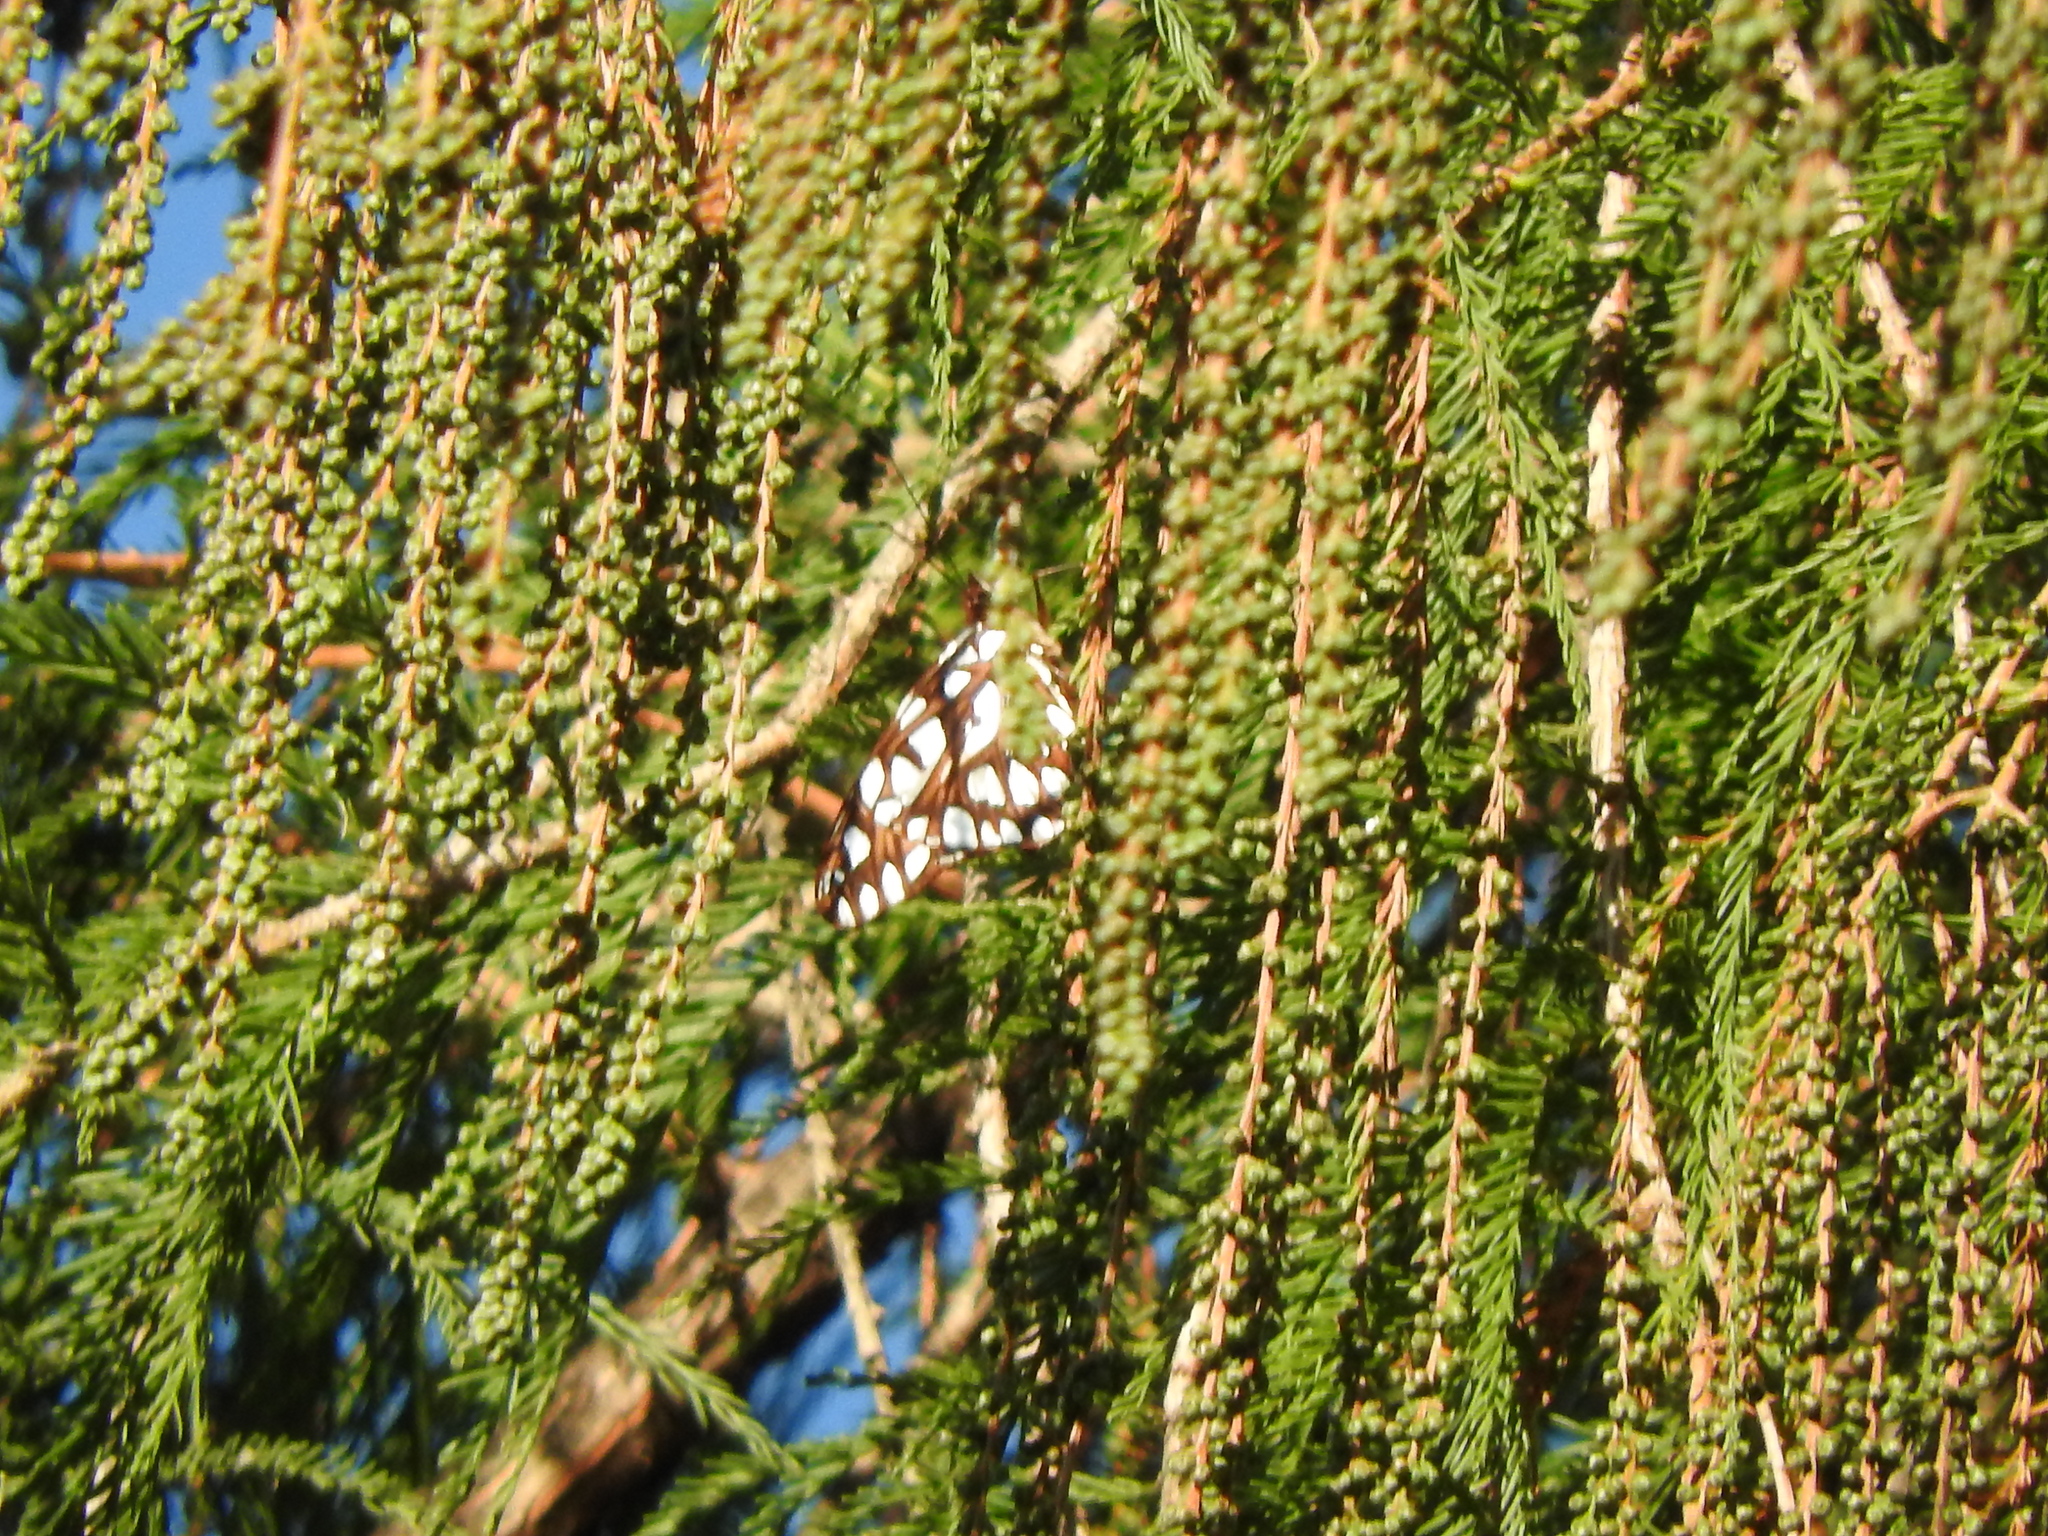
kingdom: Animalia
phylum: Arthropoda
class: Insecta
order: Lepidoptera
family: Nymphalidae
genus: Dione
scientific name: Dione moneta
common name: Mexican silverspot
